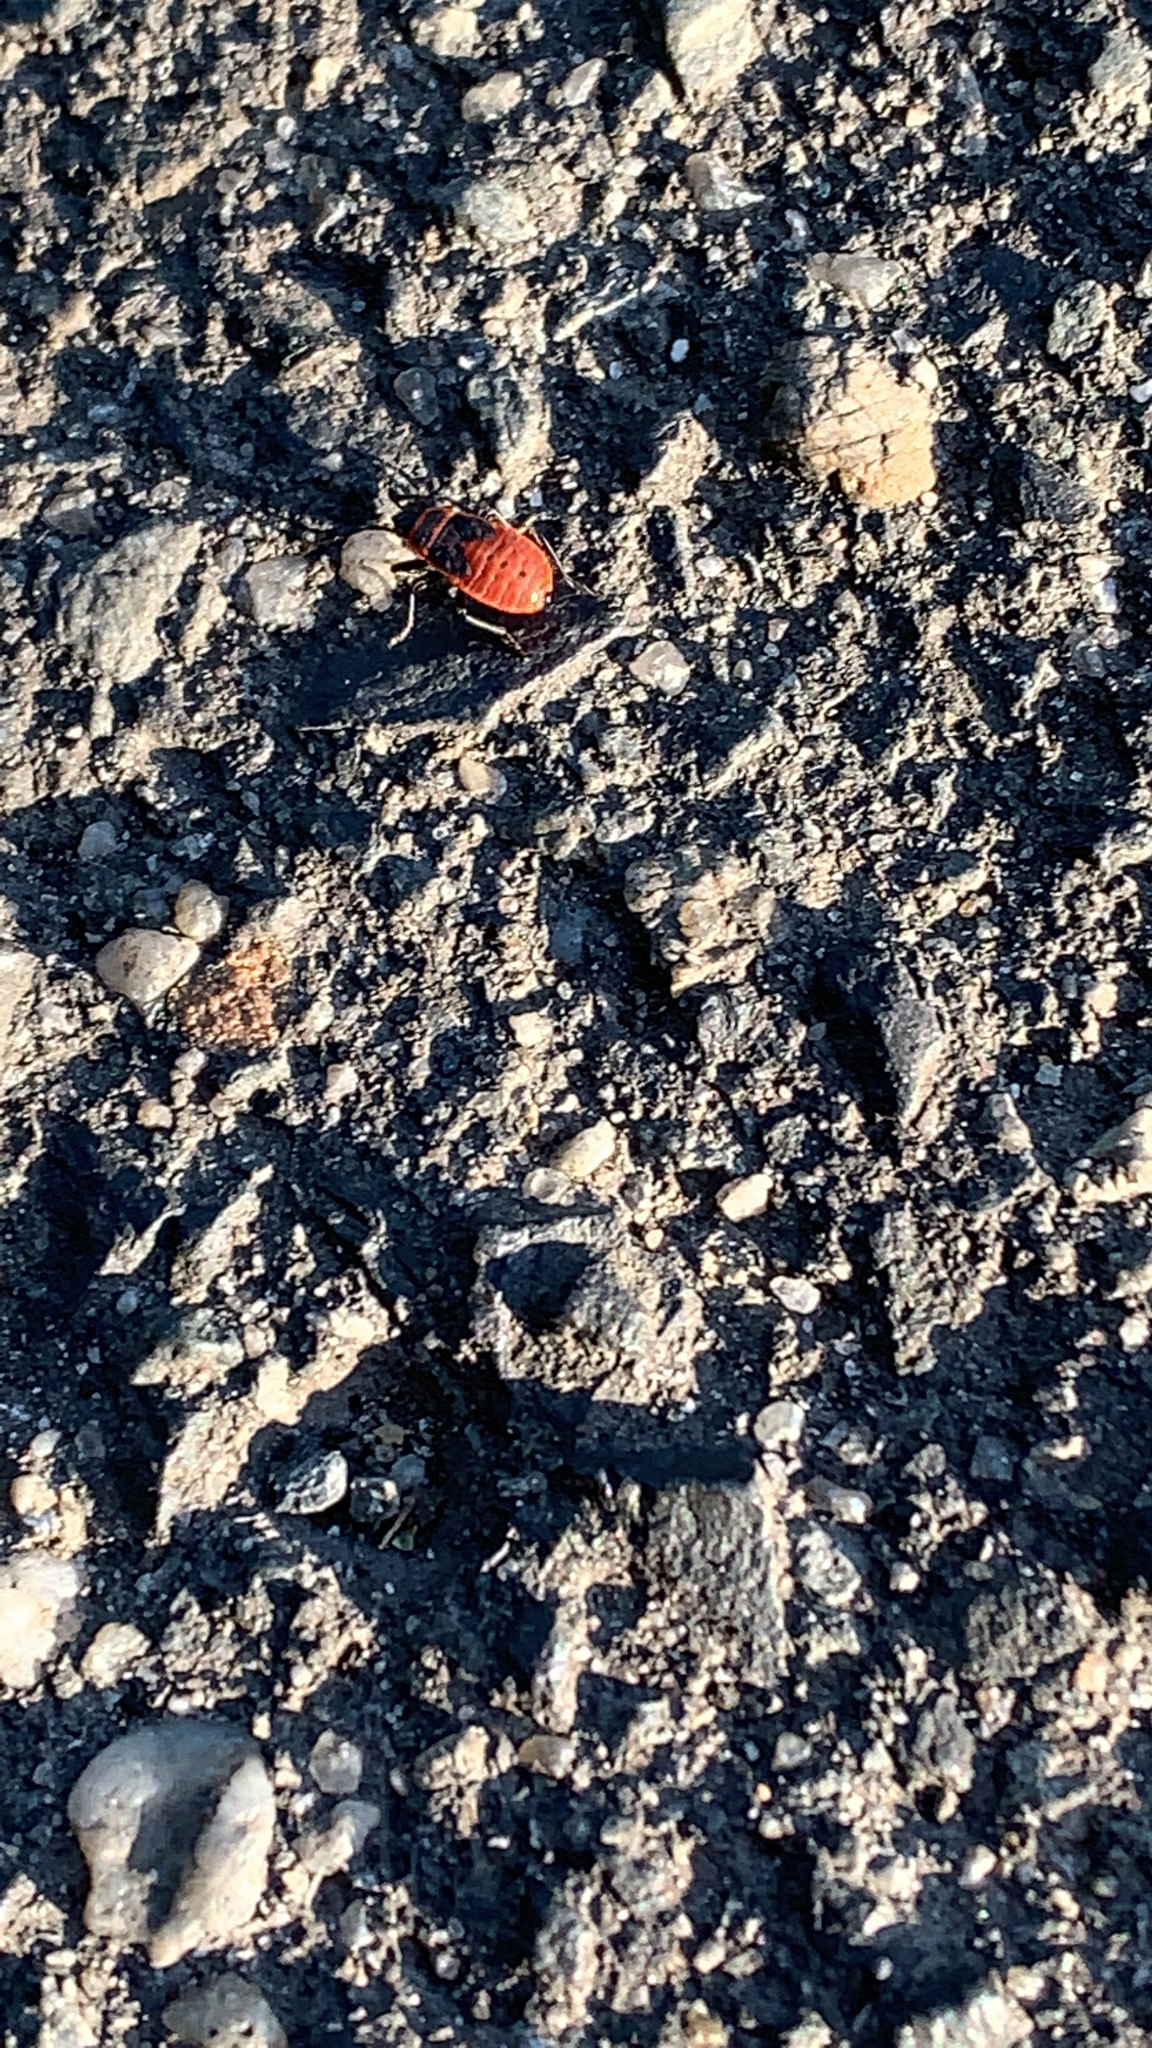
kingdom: Animalia
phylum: Arthropoda
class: Insecta
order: Hemiptera
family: Pyrrhocoridae
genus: Pyrrhocoris
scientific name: Pyrrhocoris apterus
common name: Firebug
